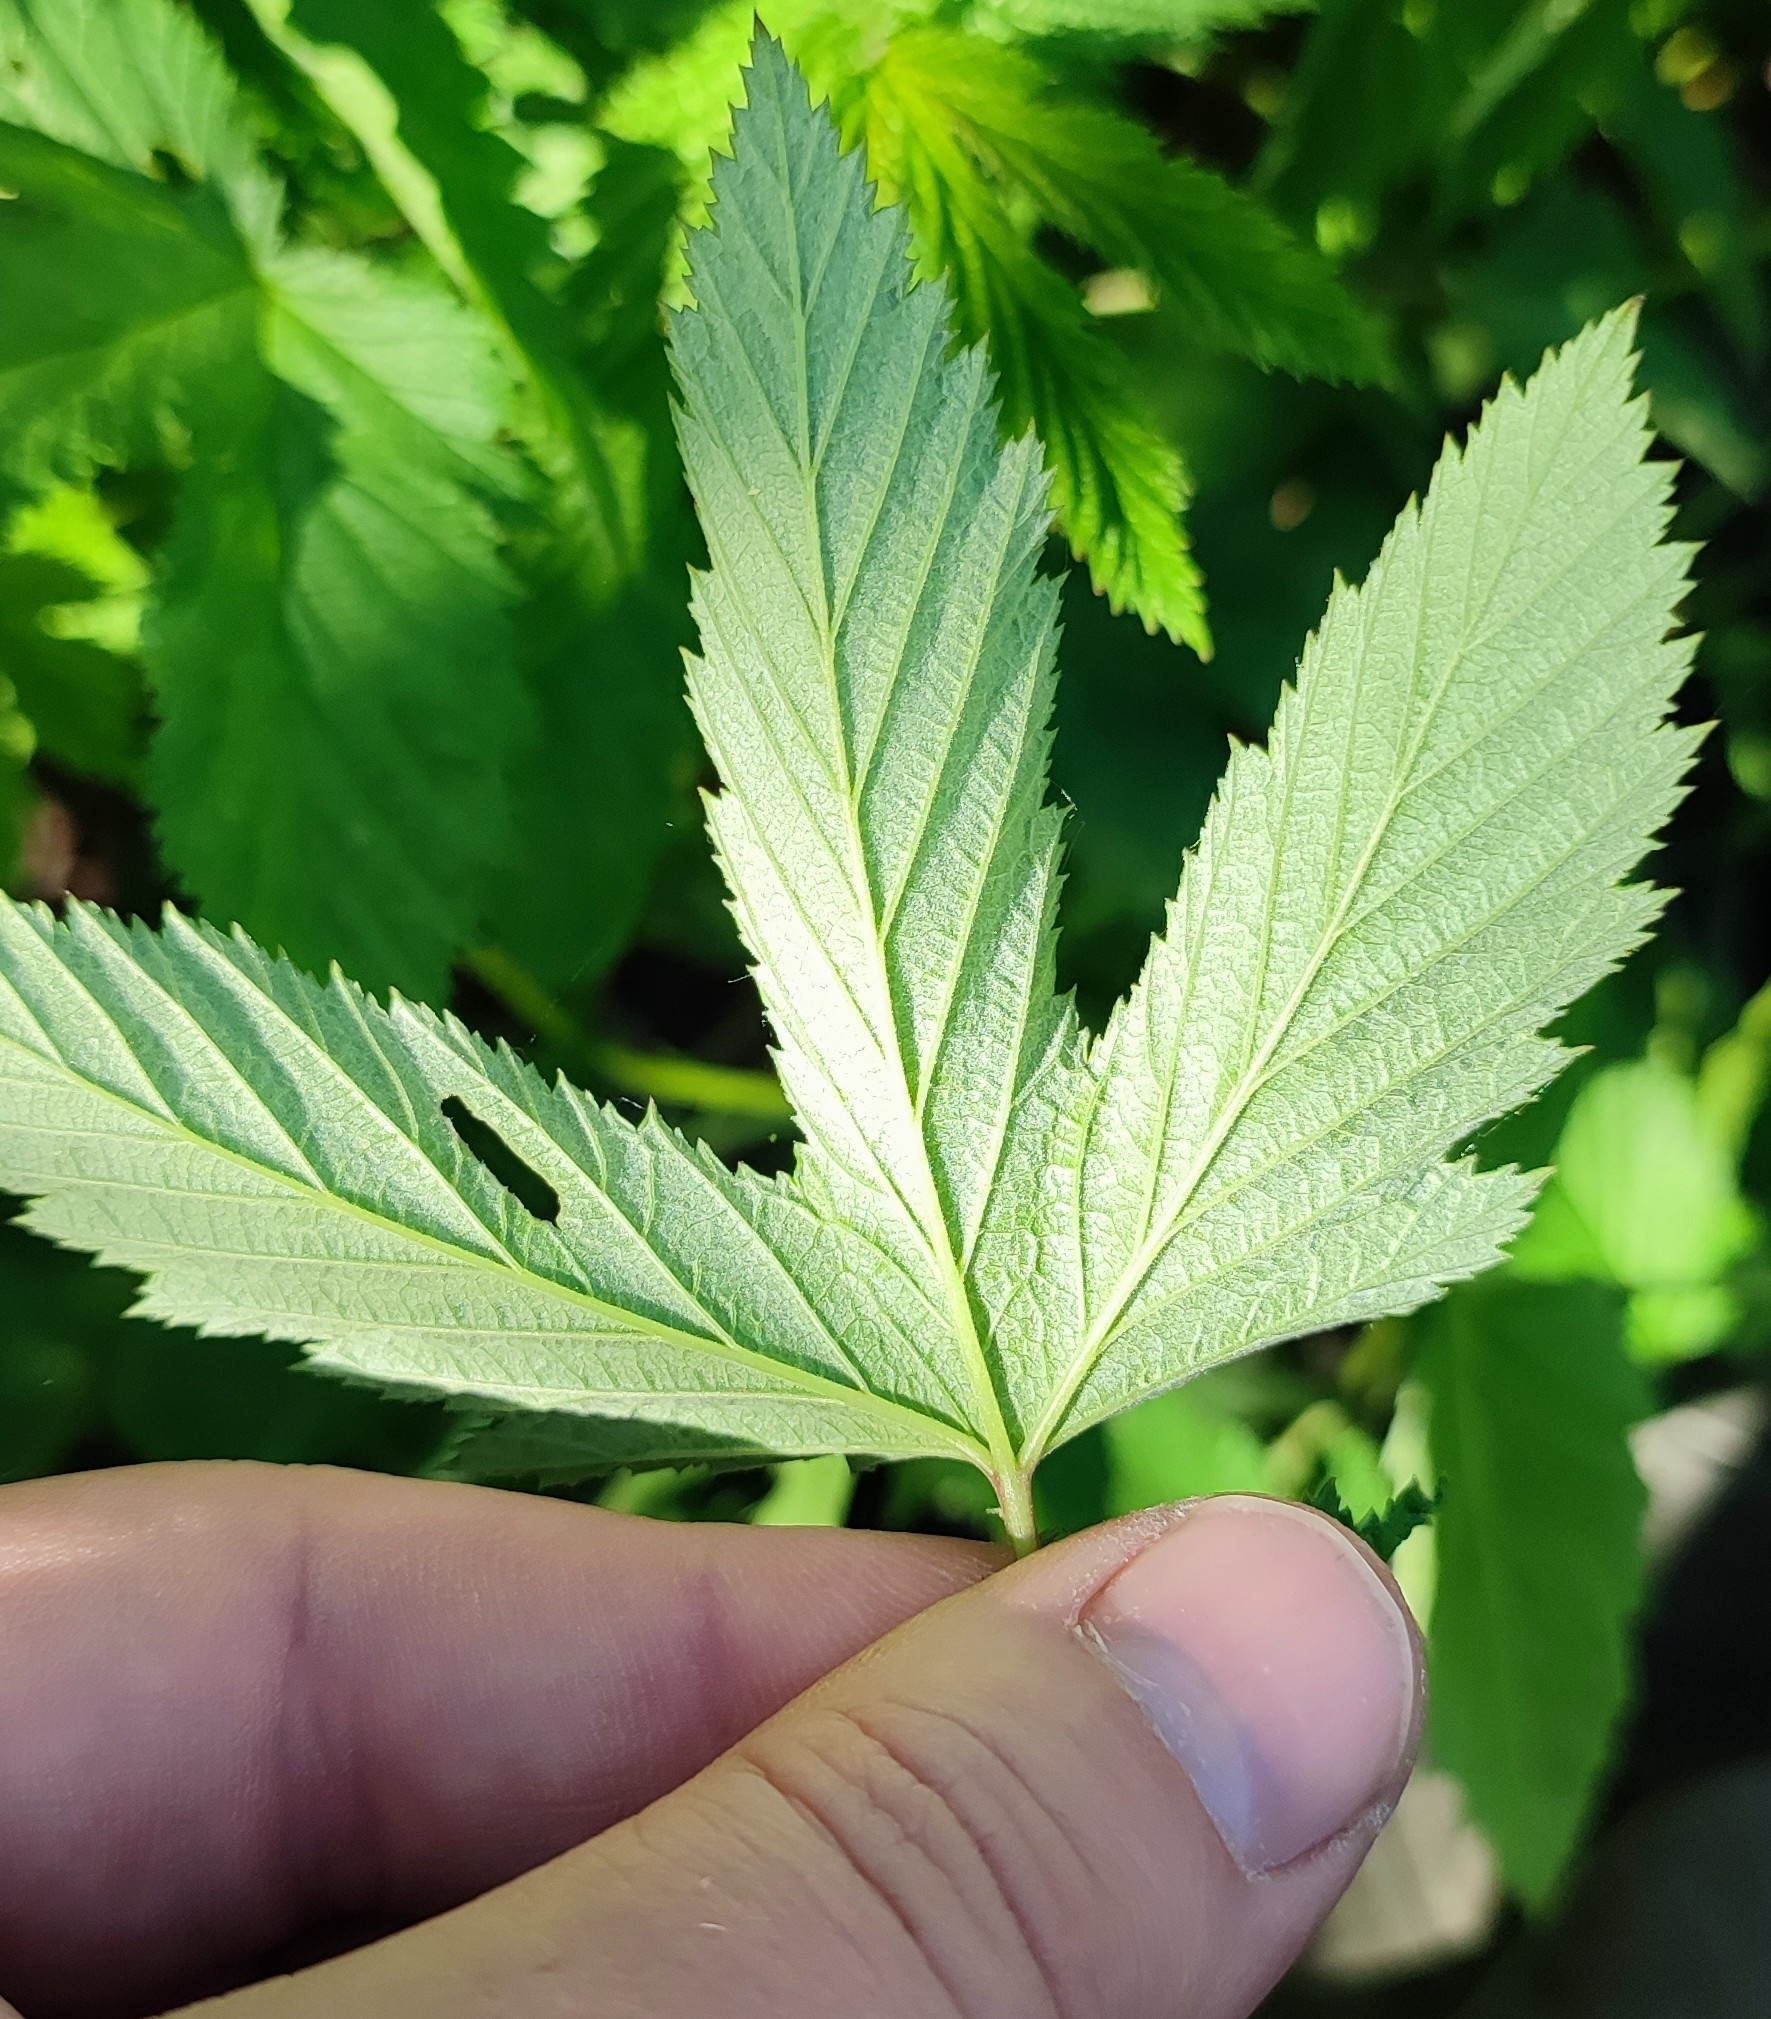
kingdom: Plantae
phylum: Tracheophyta
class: Magnoliopsida
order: Rosales
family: Rosaceae
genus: Filipendula
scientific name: Filipendula ulmaria
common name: Meadowsweet
